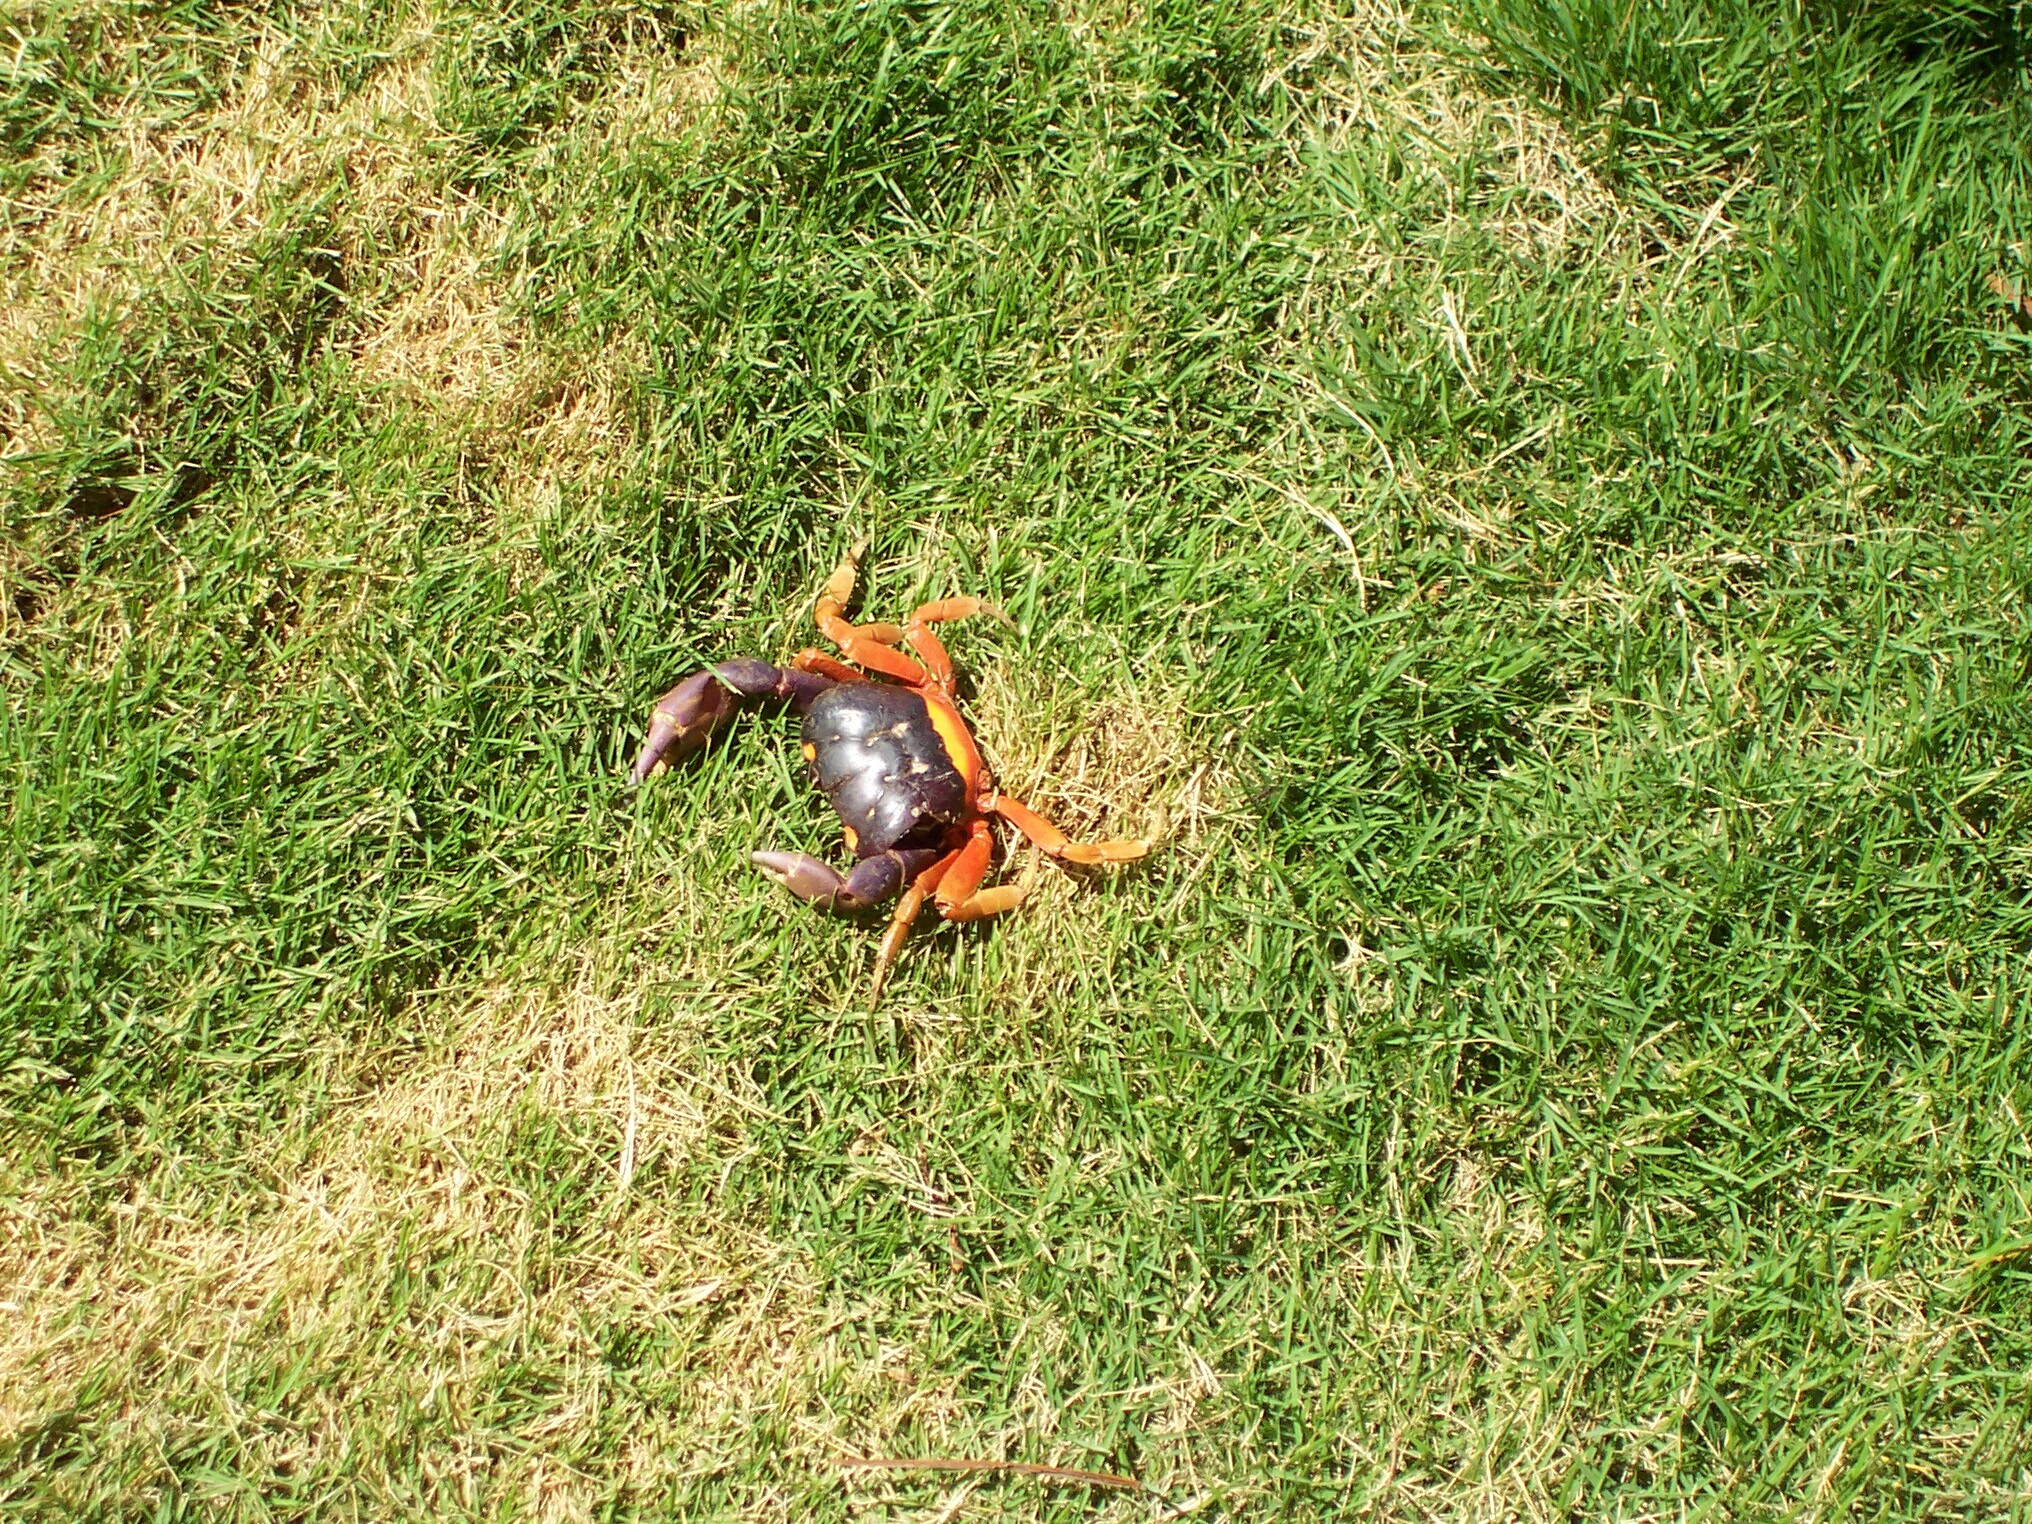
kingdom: Animalia
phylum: Arthropoda
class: Malacostraca
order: Decapoda
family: Gecarcinidae
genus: Gecarcinus
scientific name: Gecarcinus quadratus
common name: Halloween crab
